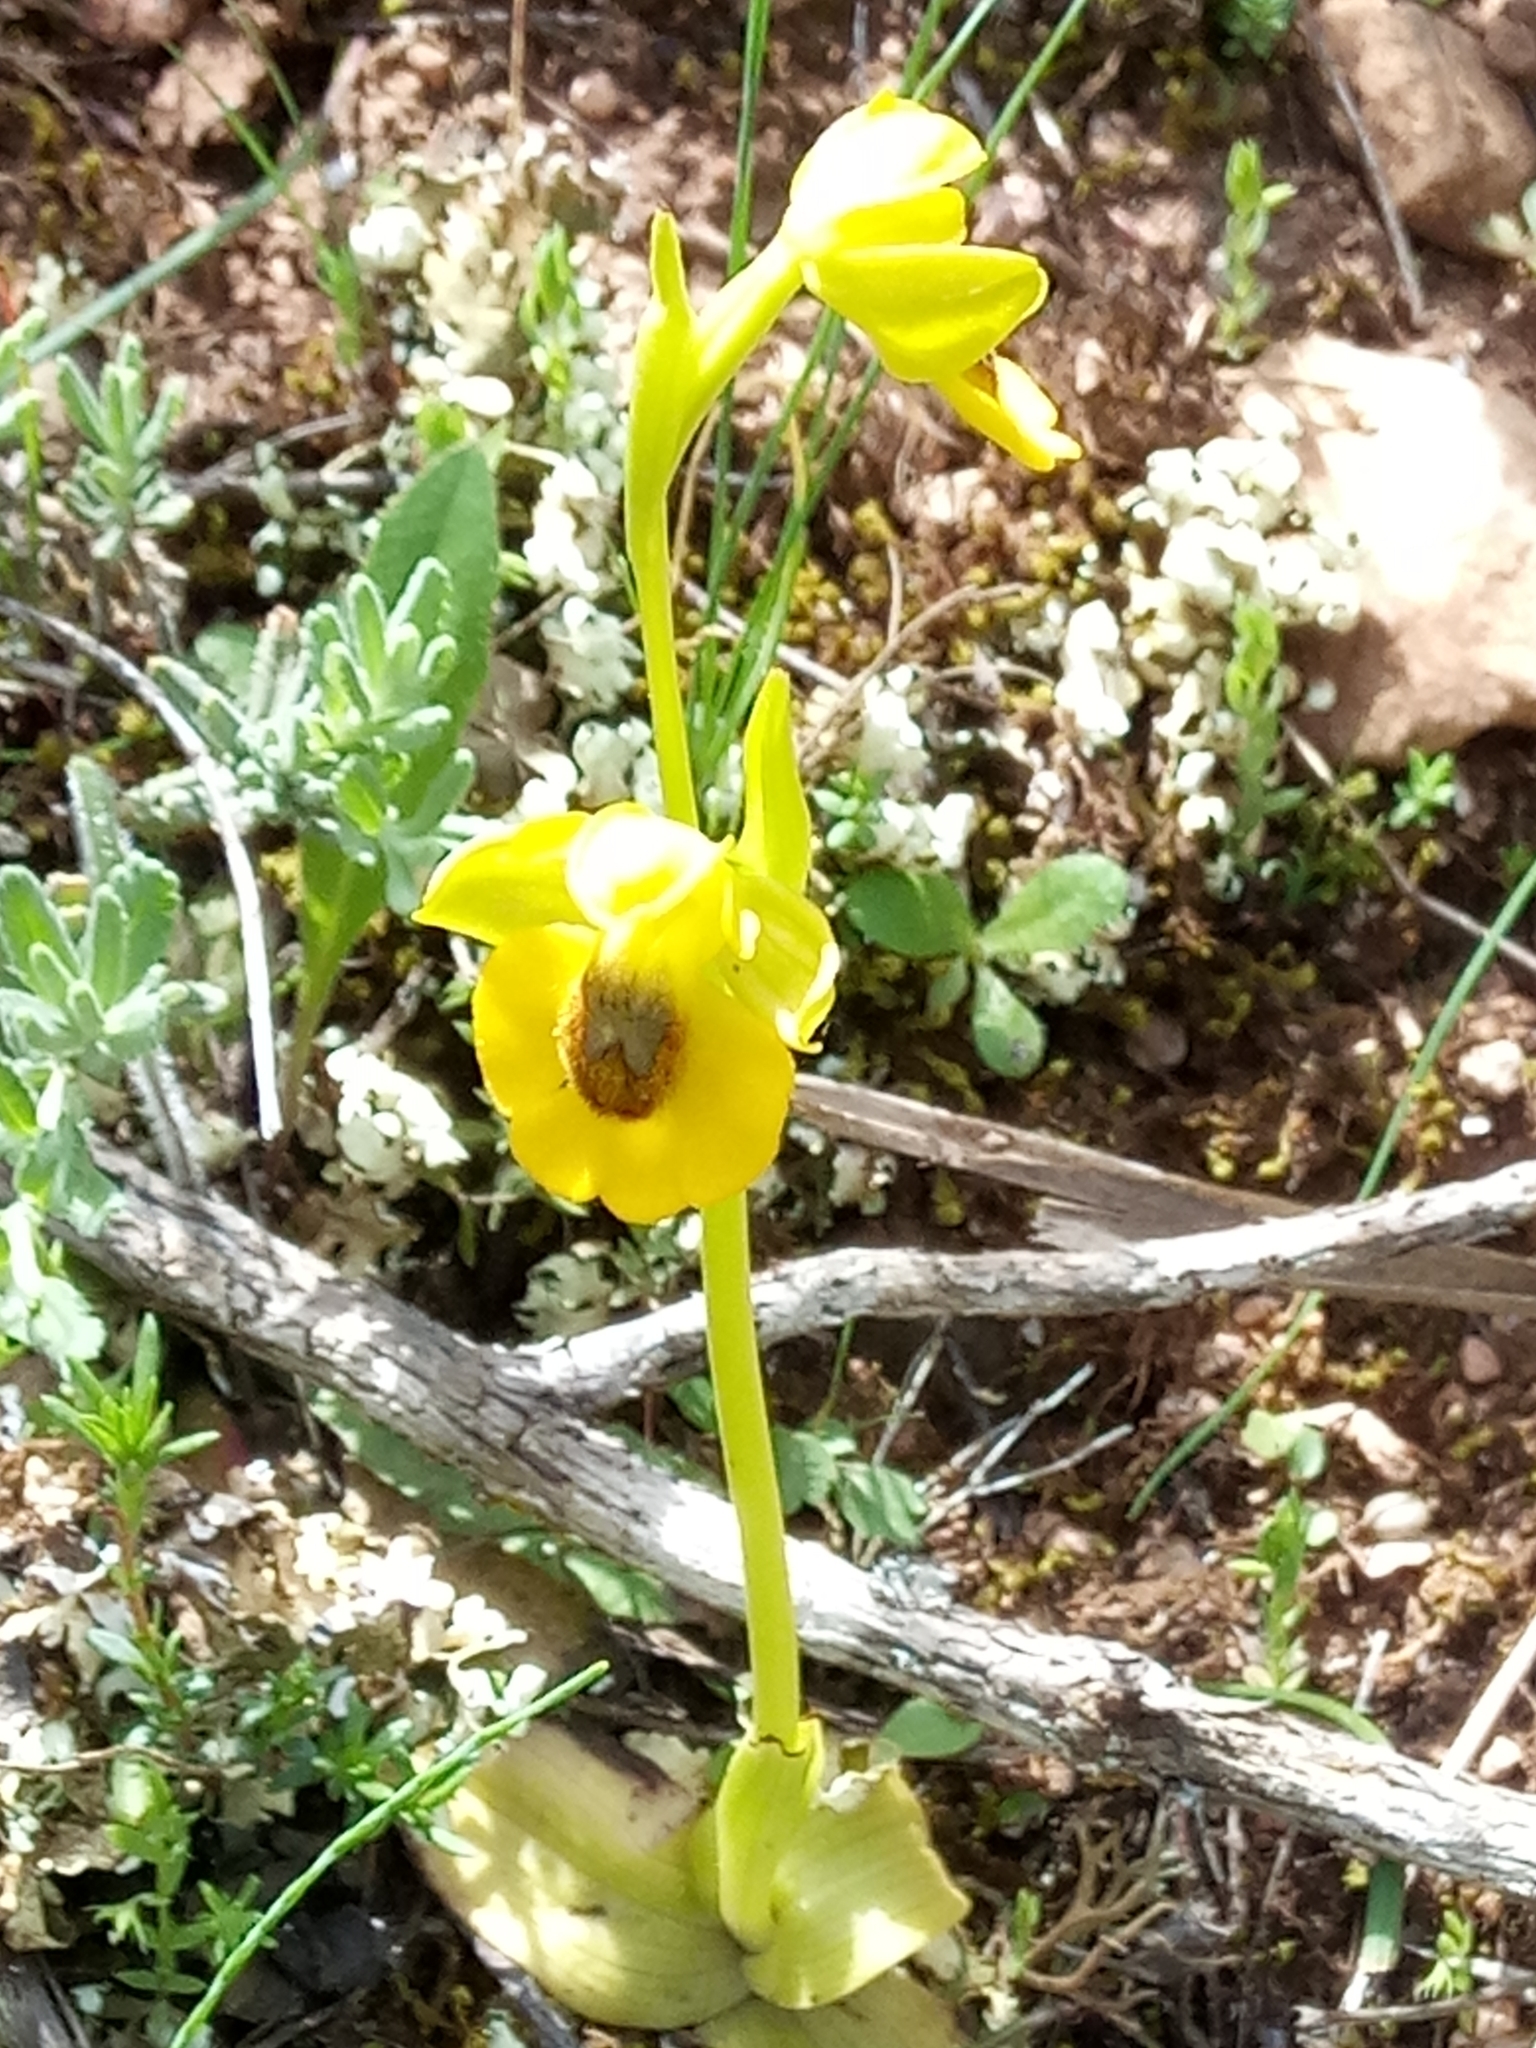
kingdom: Plantae
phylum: Tracheophyta
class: Liliopsida
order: Asparagales
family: Orchidaceae
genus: Ophrys
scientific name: Ophrys lutea
